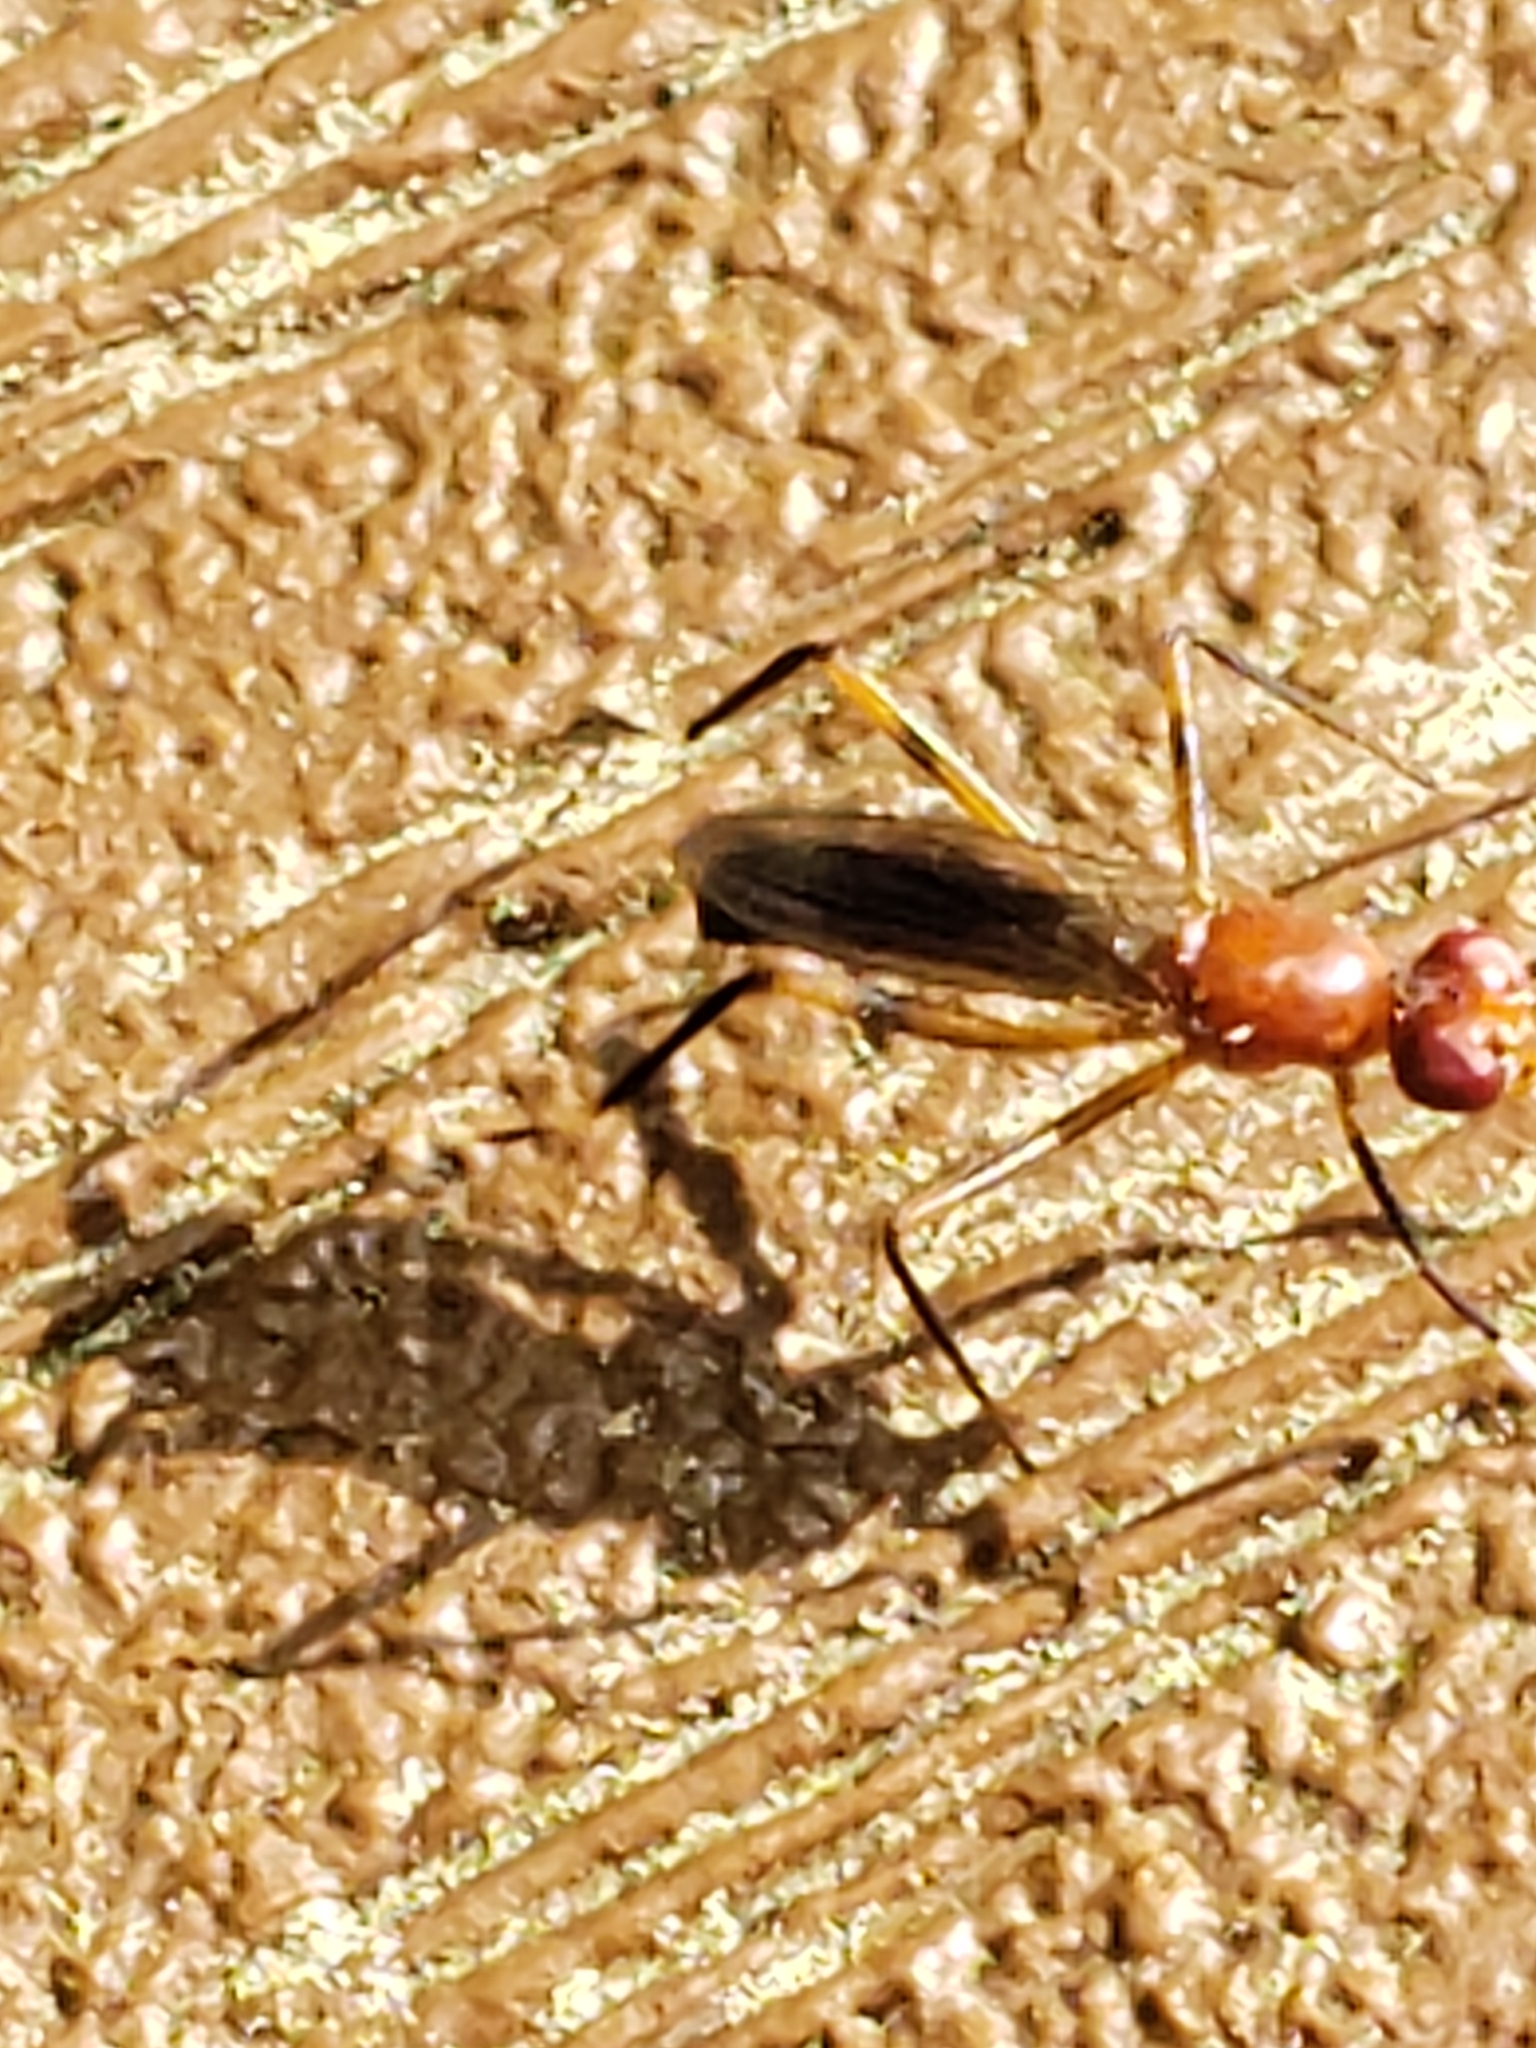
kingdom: Animalia
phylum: Arthropoda
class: Insecta
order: Diptera
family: Micropezidae
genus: Grallipeza
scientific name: Grallipeza nebulosa
